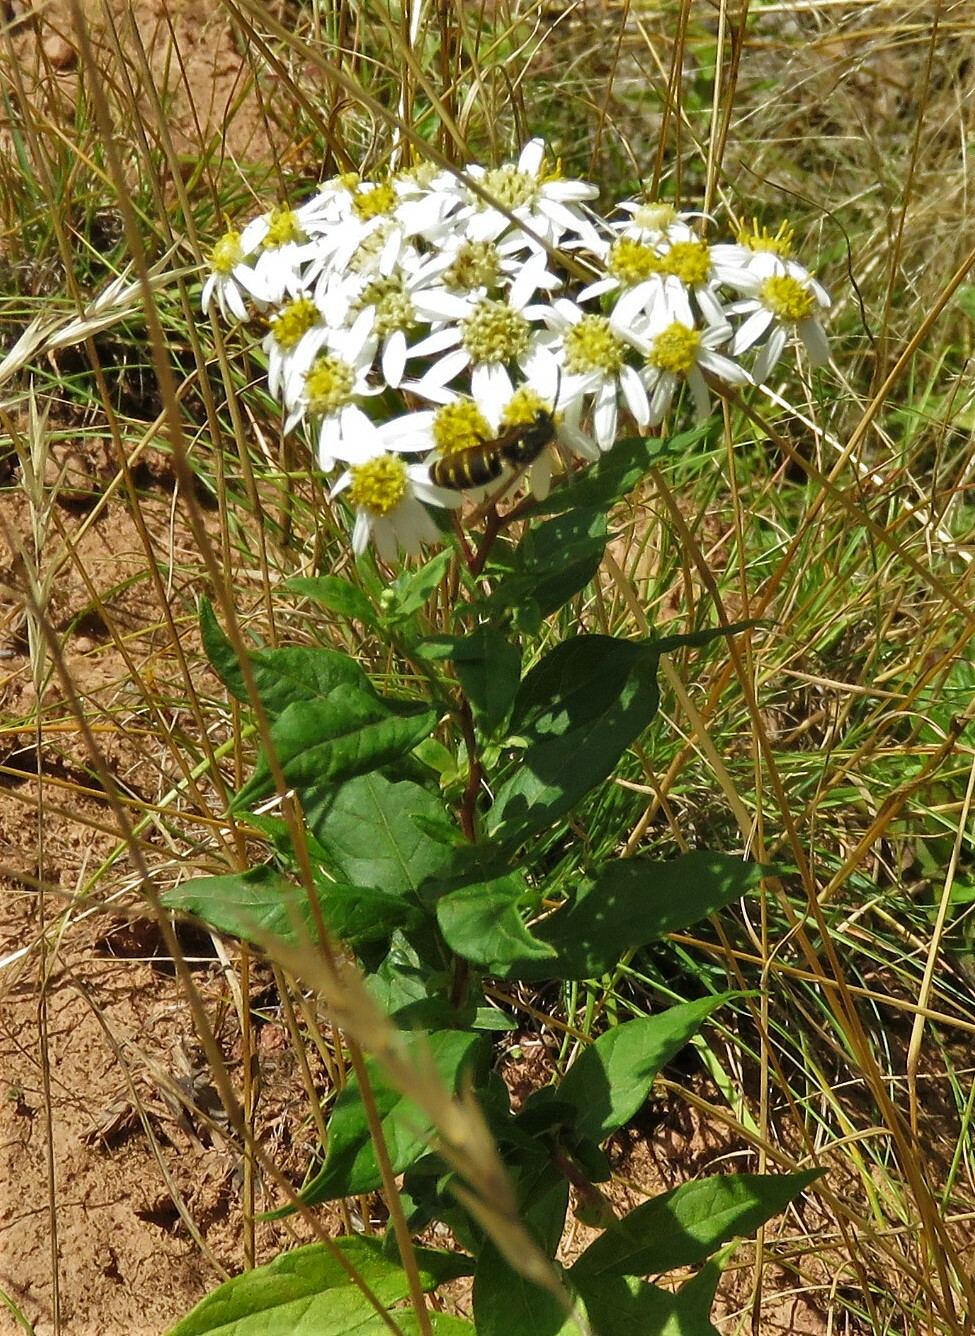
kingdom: Plantae
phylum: Tracheophyta
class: Magnoliopsida
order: Asterales
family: Asteraceae
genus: Doellingeria
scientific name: Doellingeria umbellata
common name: Flat-top white aster
